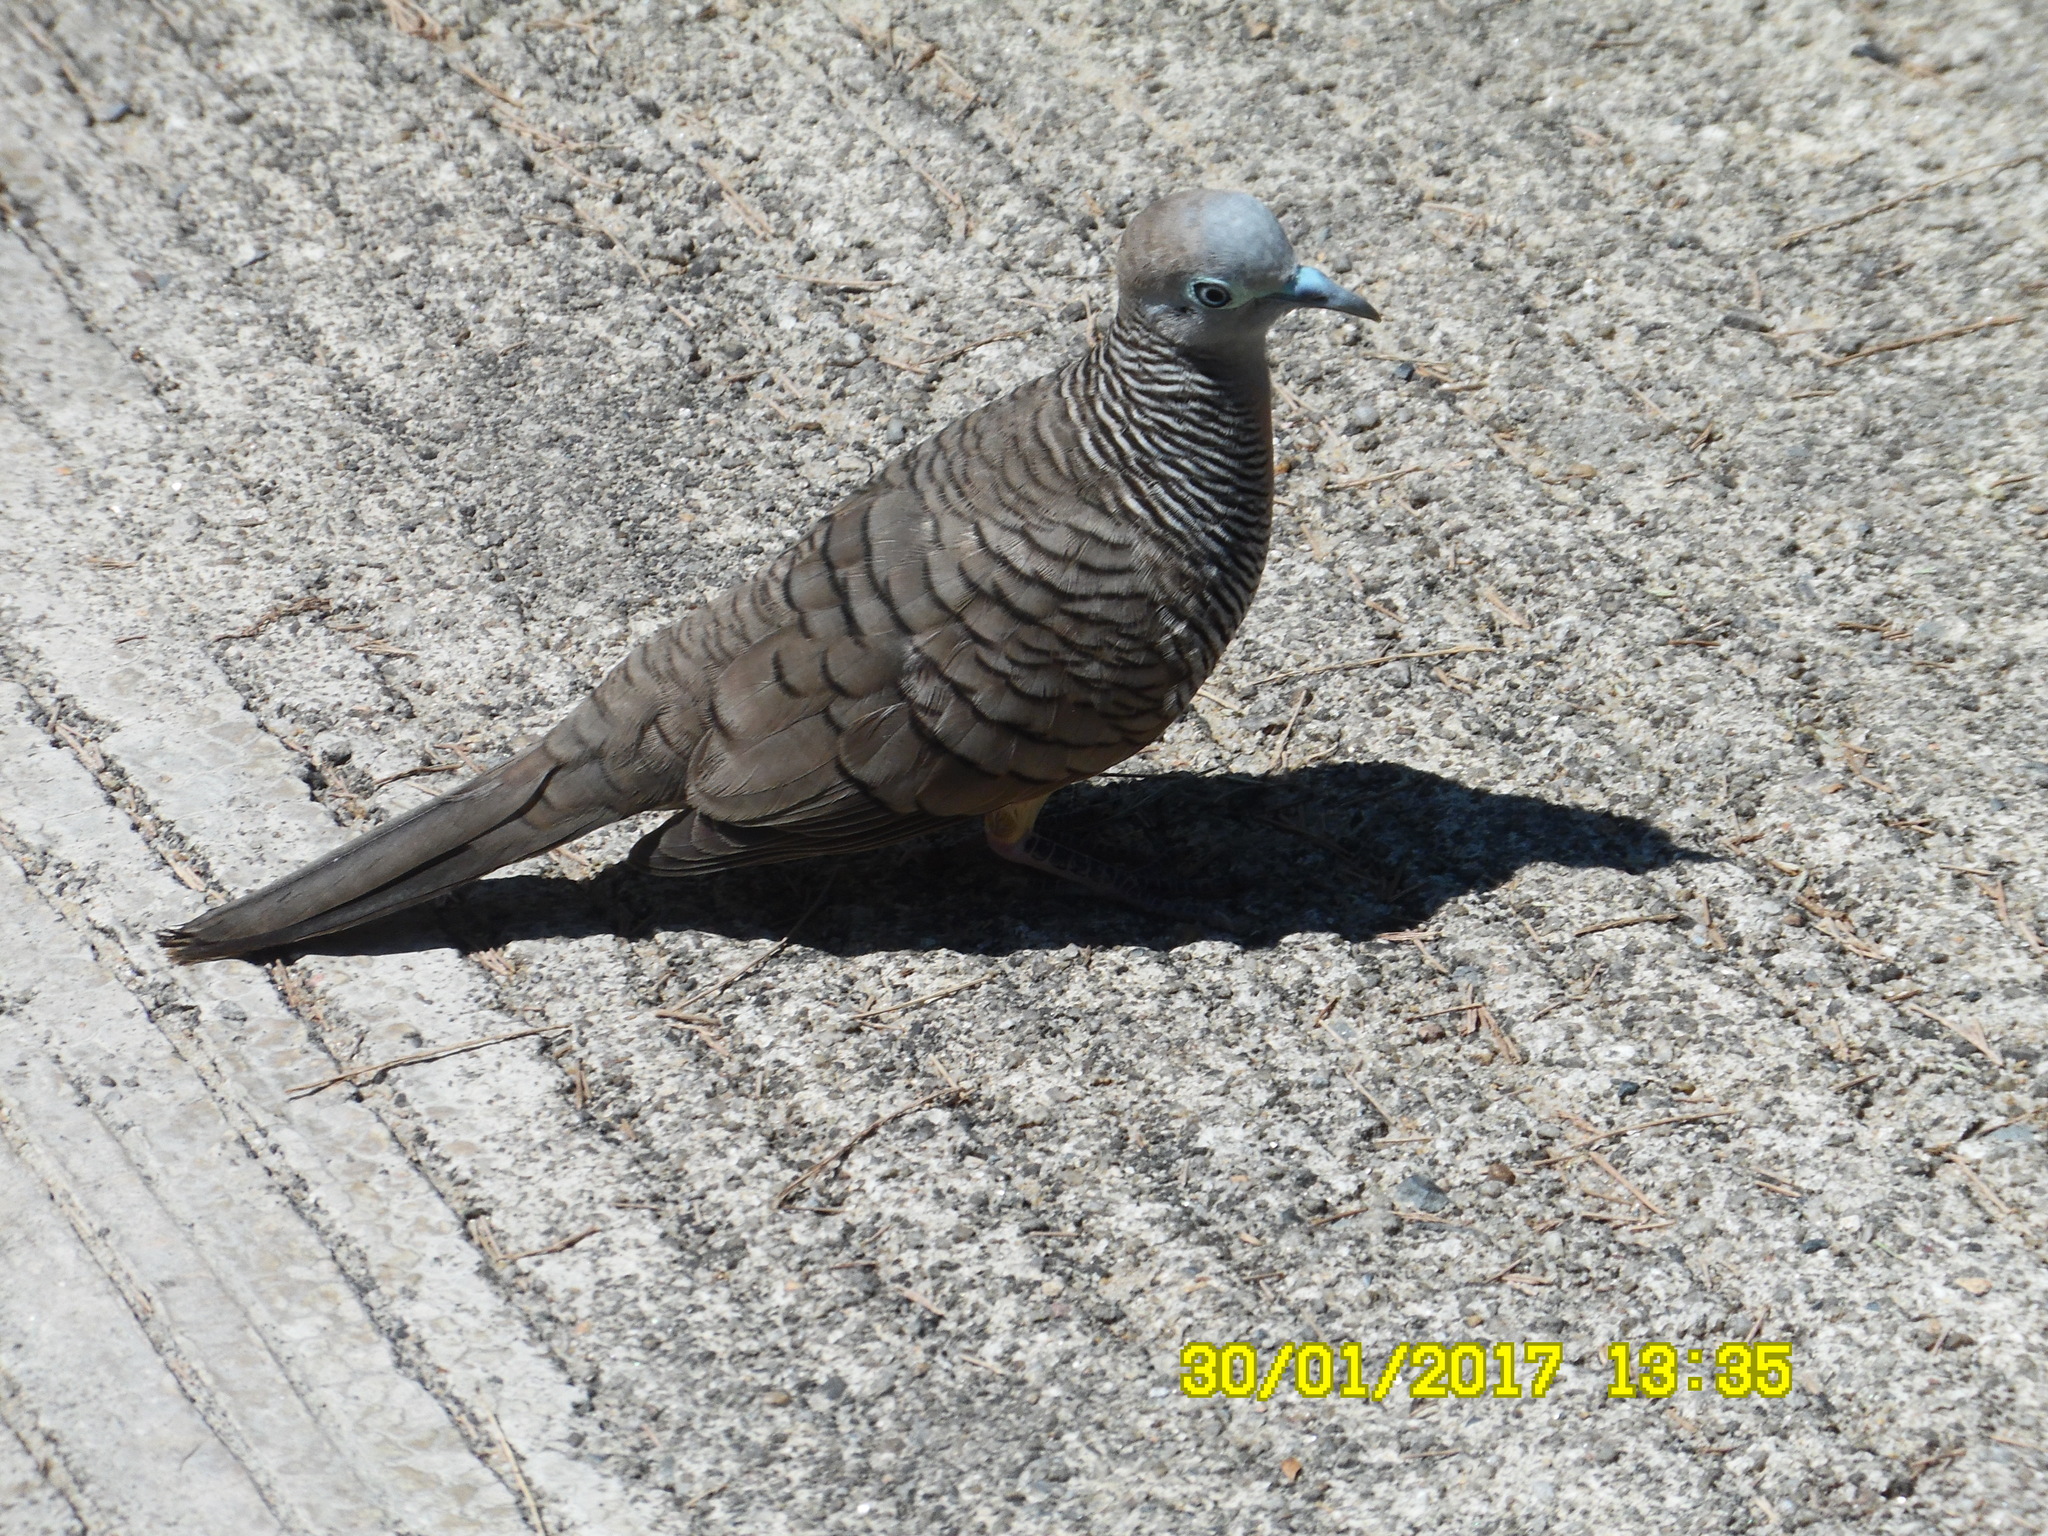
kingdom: Animalia
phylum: Chordata
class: Aves
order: Columbiformes
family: Columbidae
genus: Geopelia
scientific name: Geopelia striata
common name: Zebra dove
